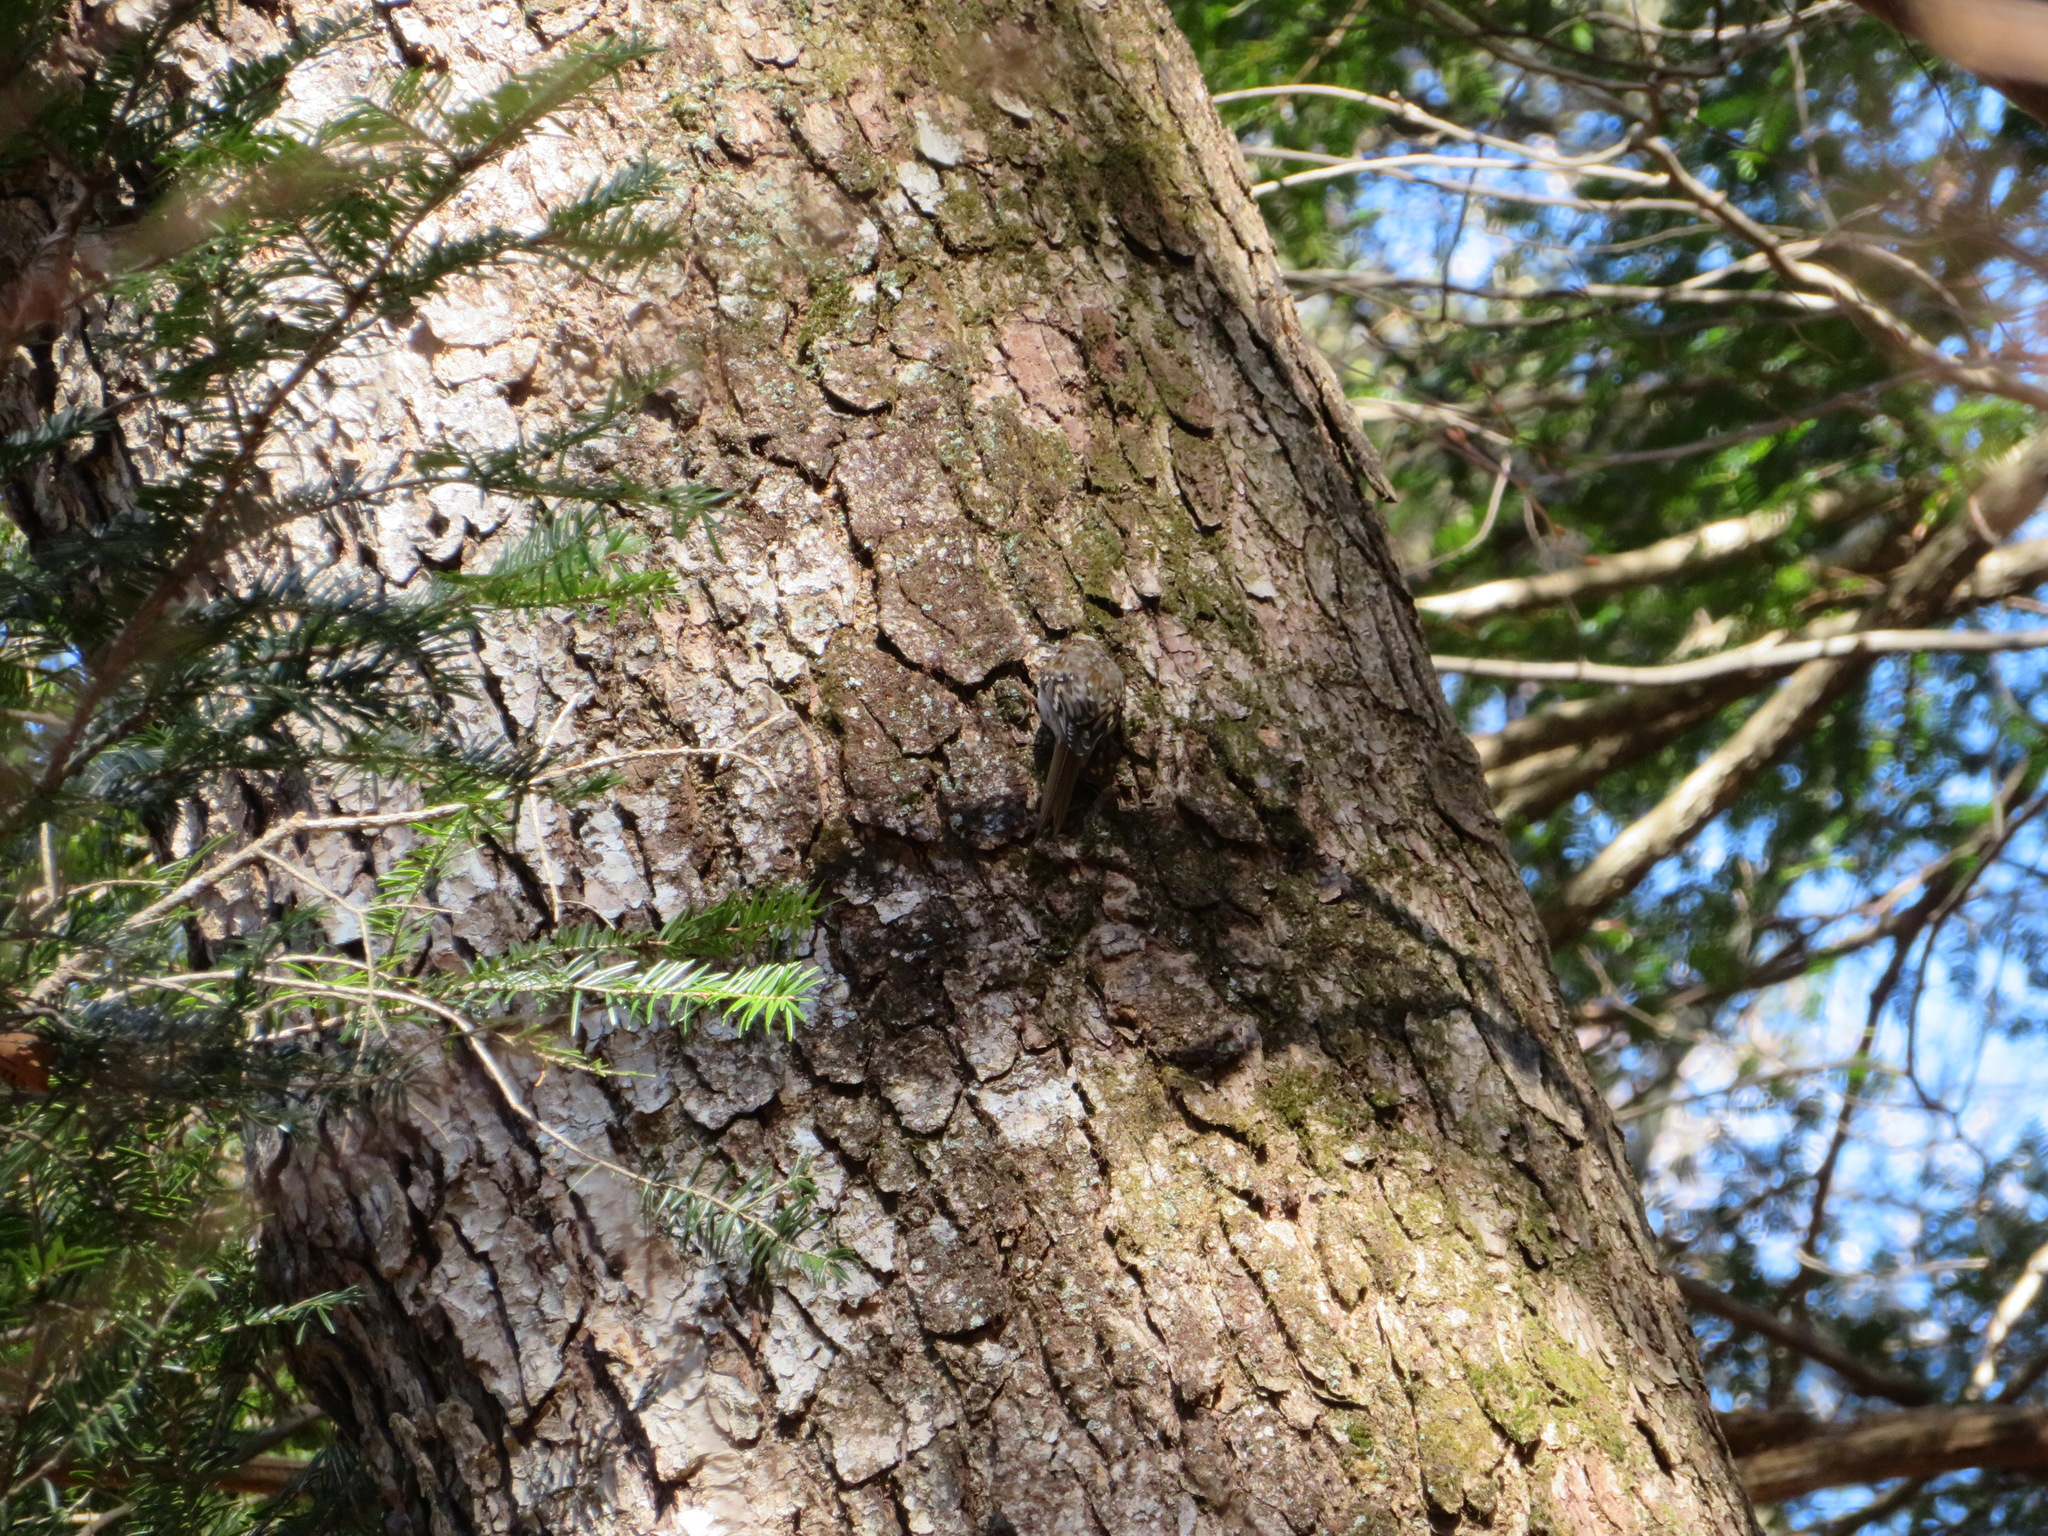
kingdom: Animalia
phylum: Chordata
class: Aves
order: Passeriformes
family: Certhiidae
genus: Certhia
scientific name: Certhia familiaris
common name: Eurasian treecreeper
